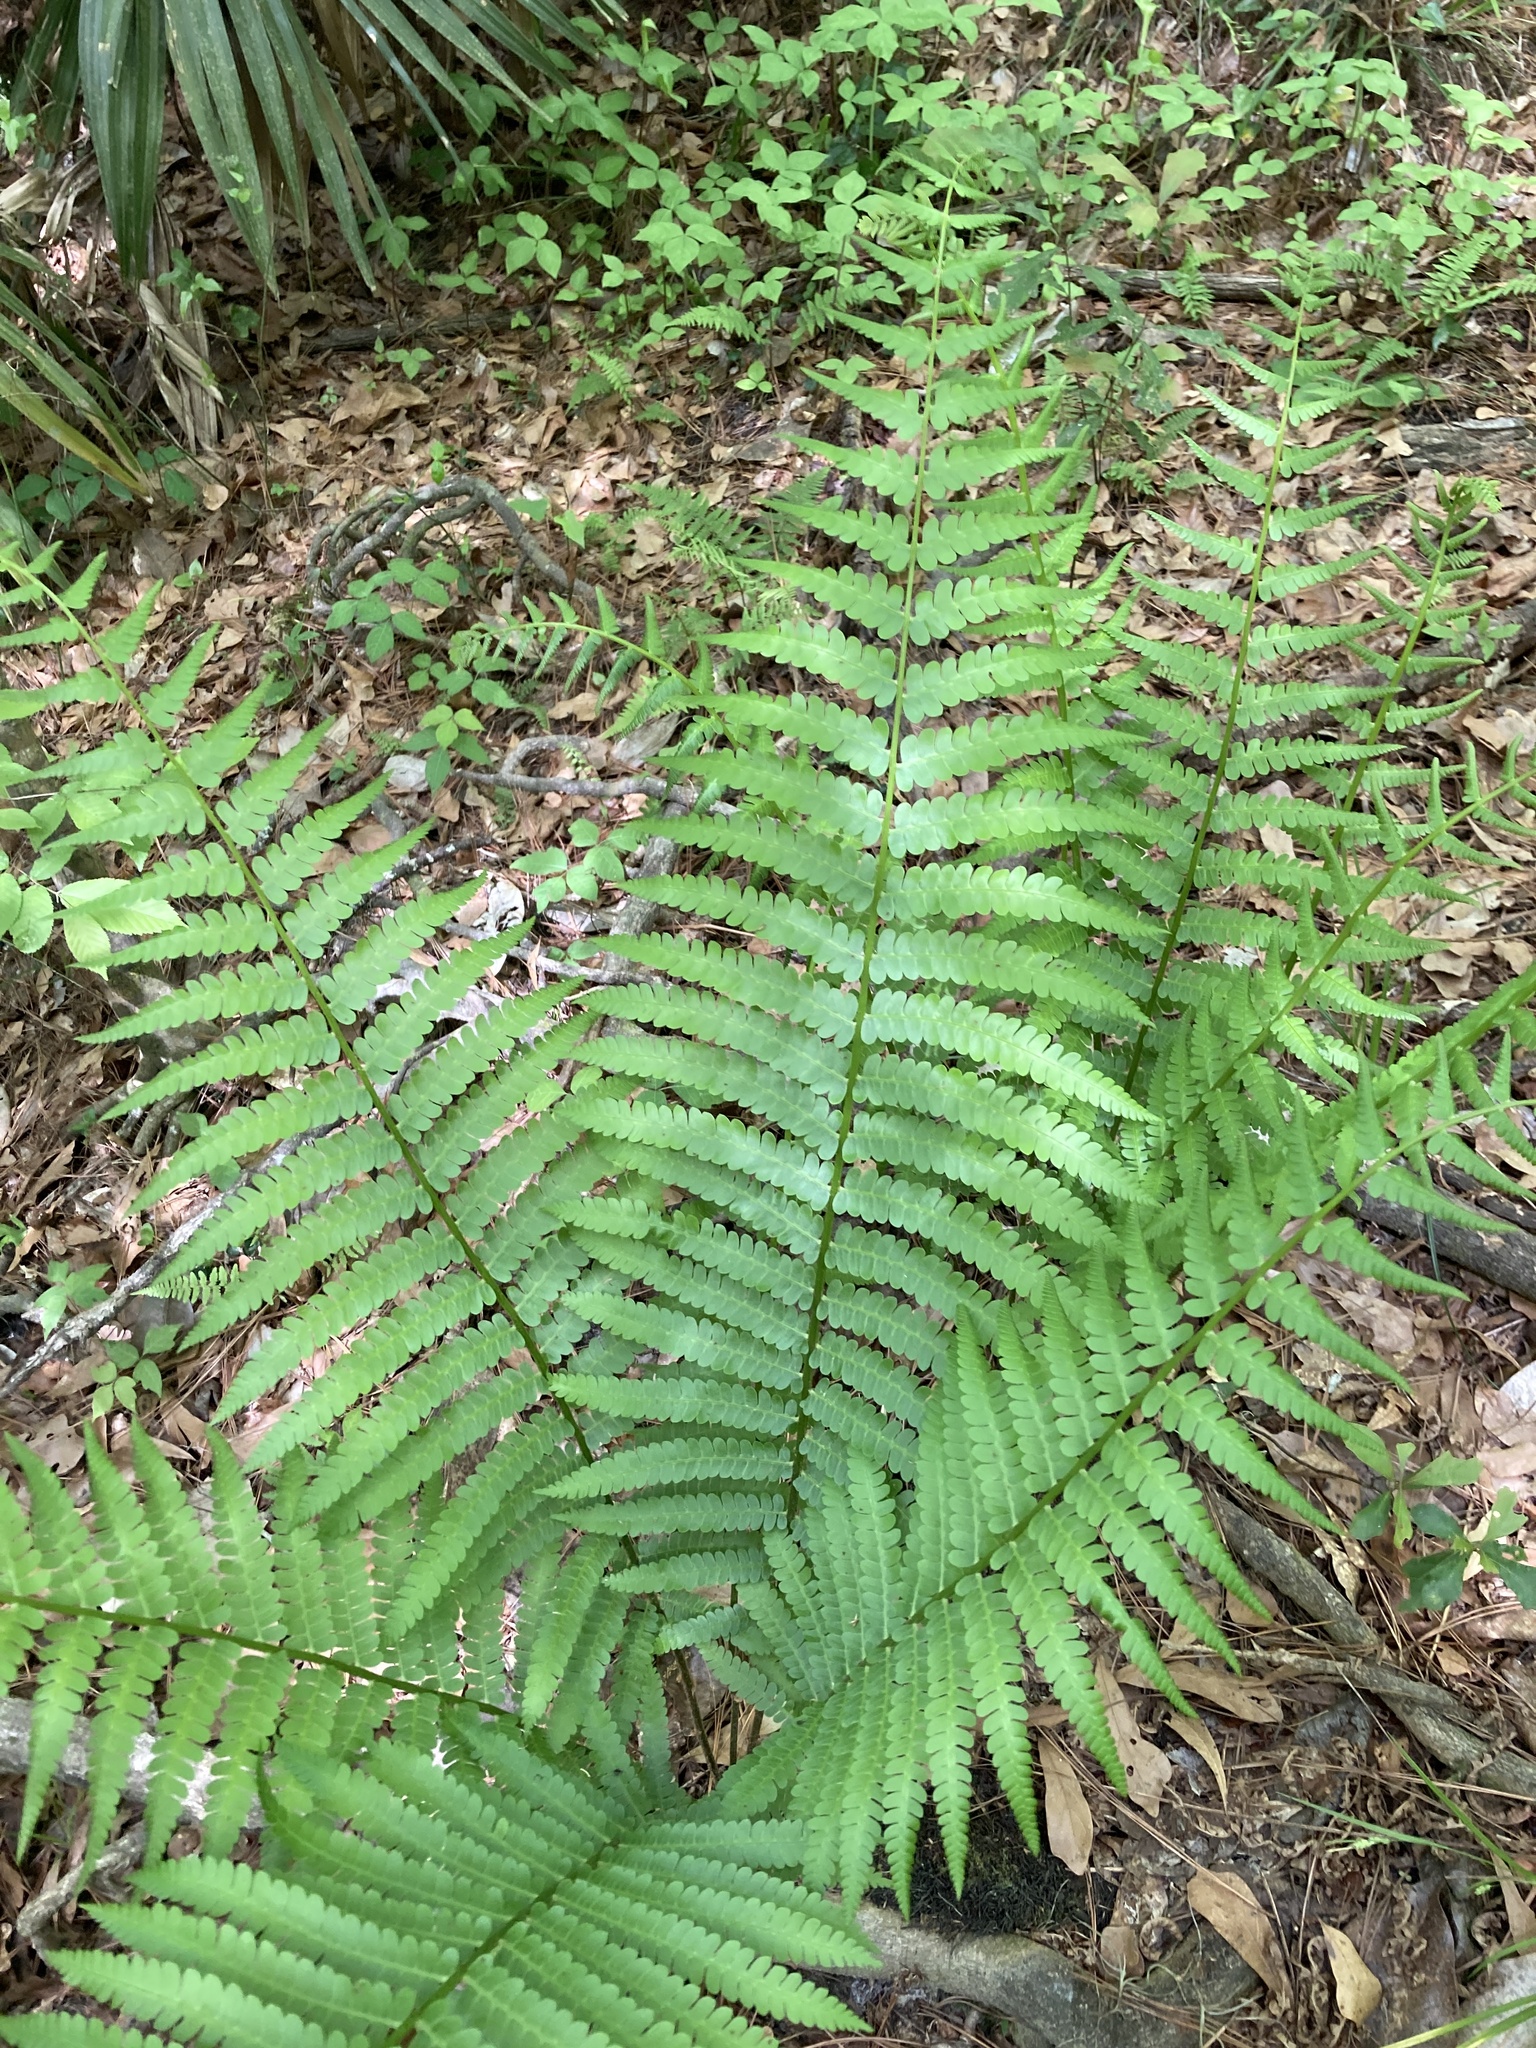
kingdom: Plantae
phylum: Tracheophyta
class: Polypodiopsida
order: Osmundales
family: Osmundaceae
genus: Osmundastrum
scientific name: Osmundastrum cinnamomeum
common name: Cinnamon fern
